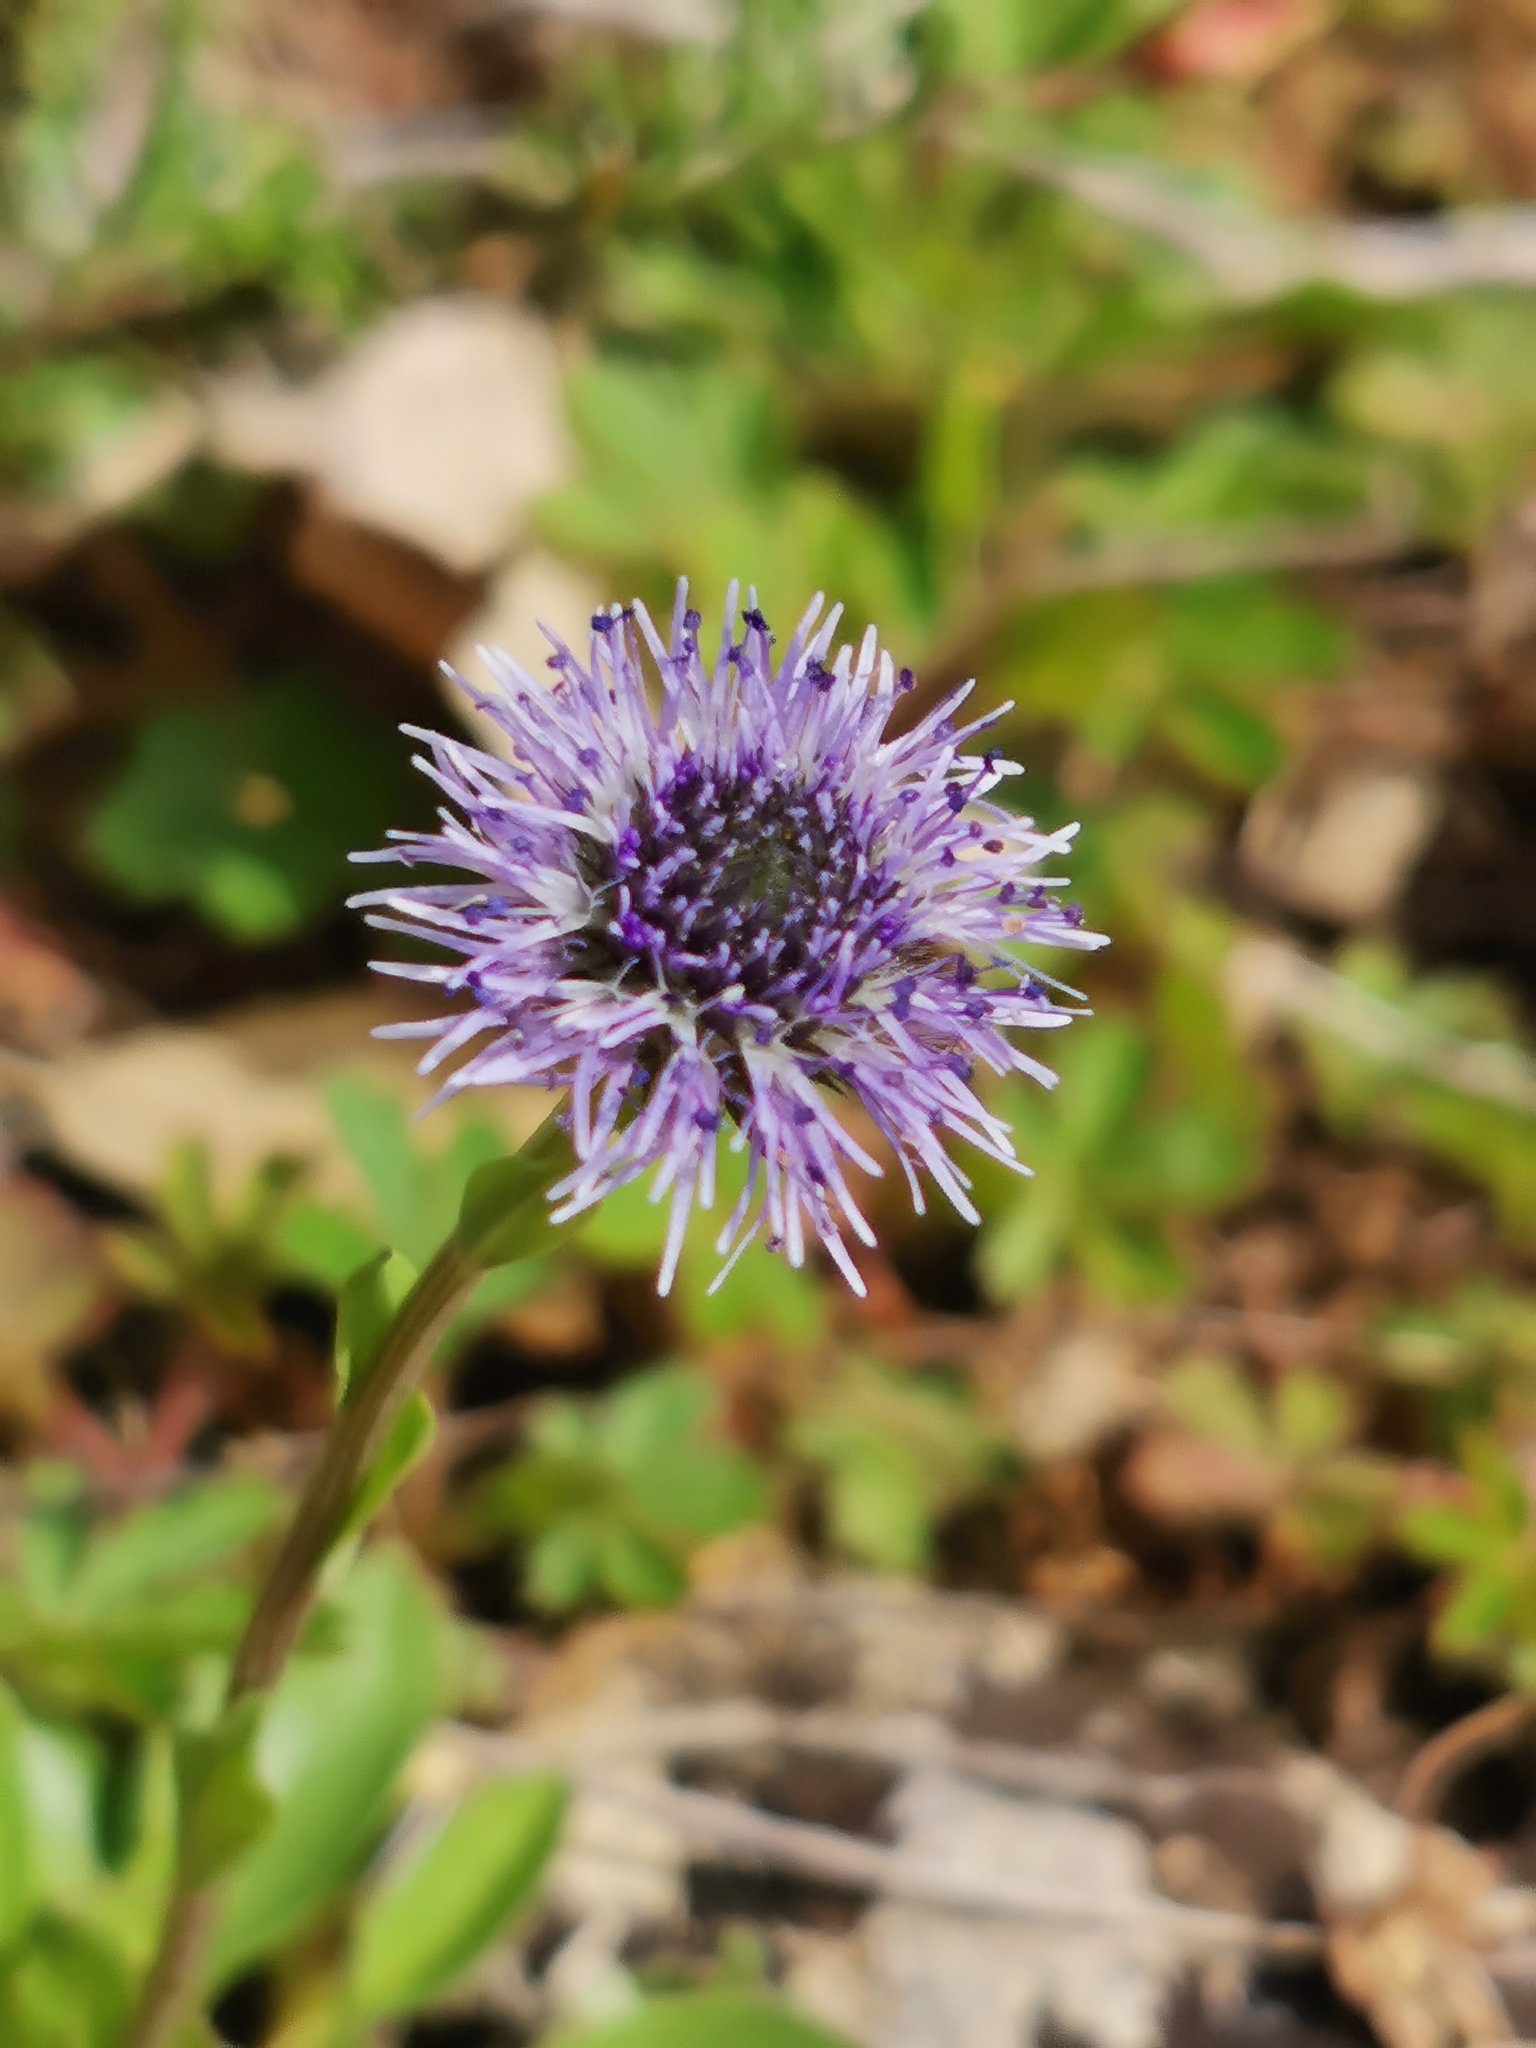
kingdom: Plantae
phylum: Tracheophyta
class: Magnoliopsida
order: Lamiales
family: Plantaginaceae
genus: Globularia
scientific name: Globularia vulgaris
